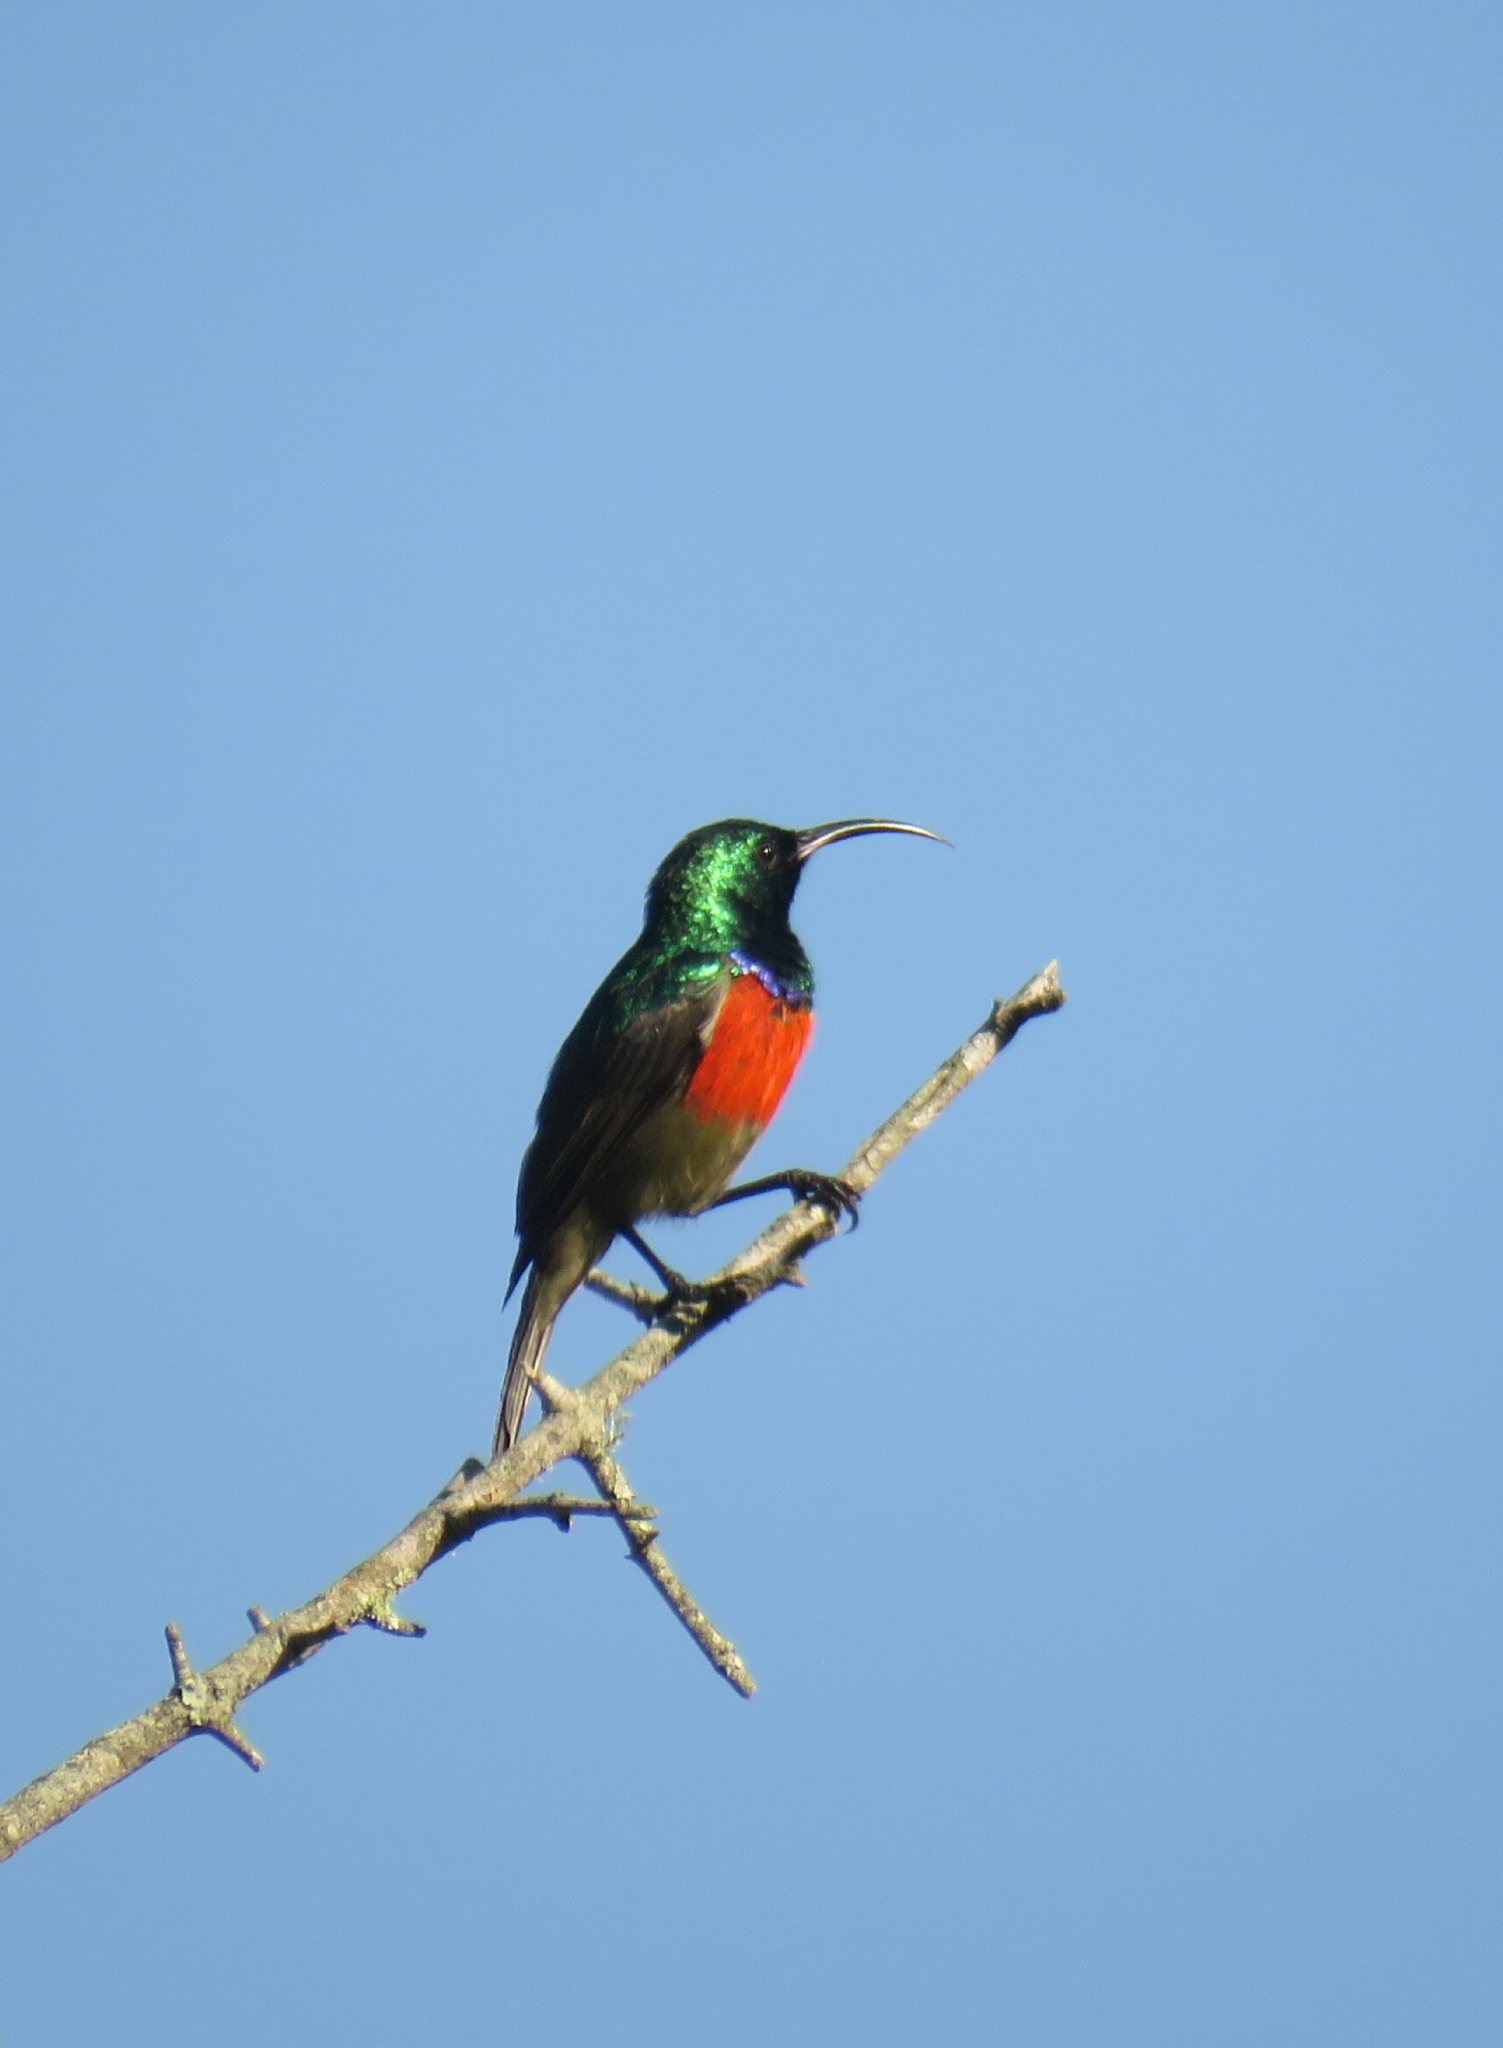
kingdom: Animalia
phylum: Chordata
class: Aves
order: Passeriformes
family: Nectariniidae
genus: Cinnyris
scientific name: Cinnyris afer
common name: Greater double-collared sunbird
